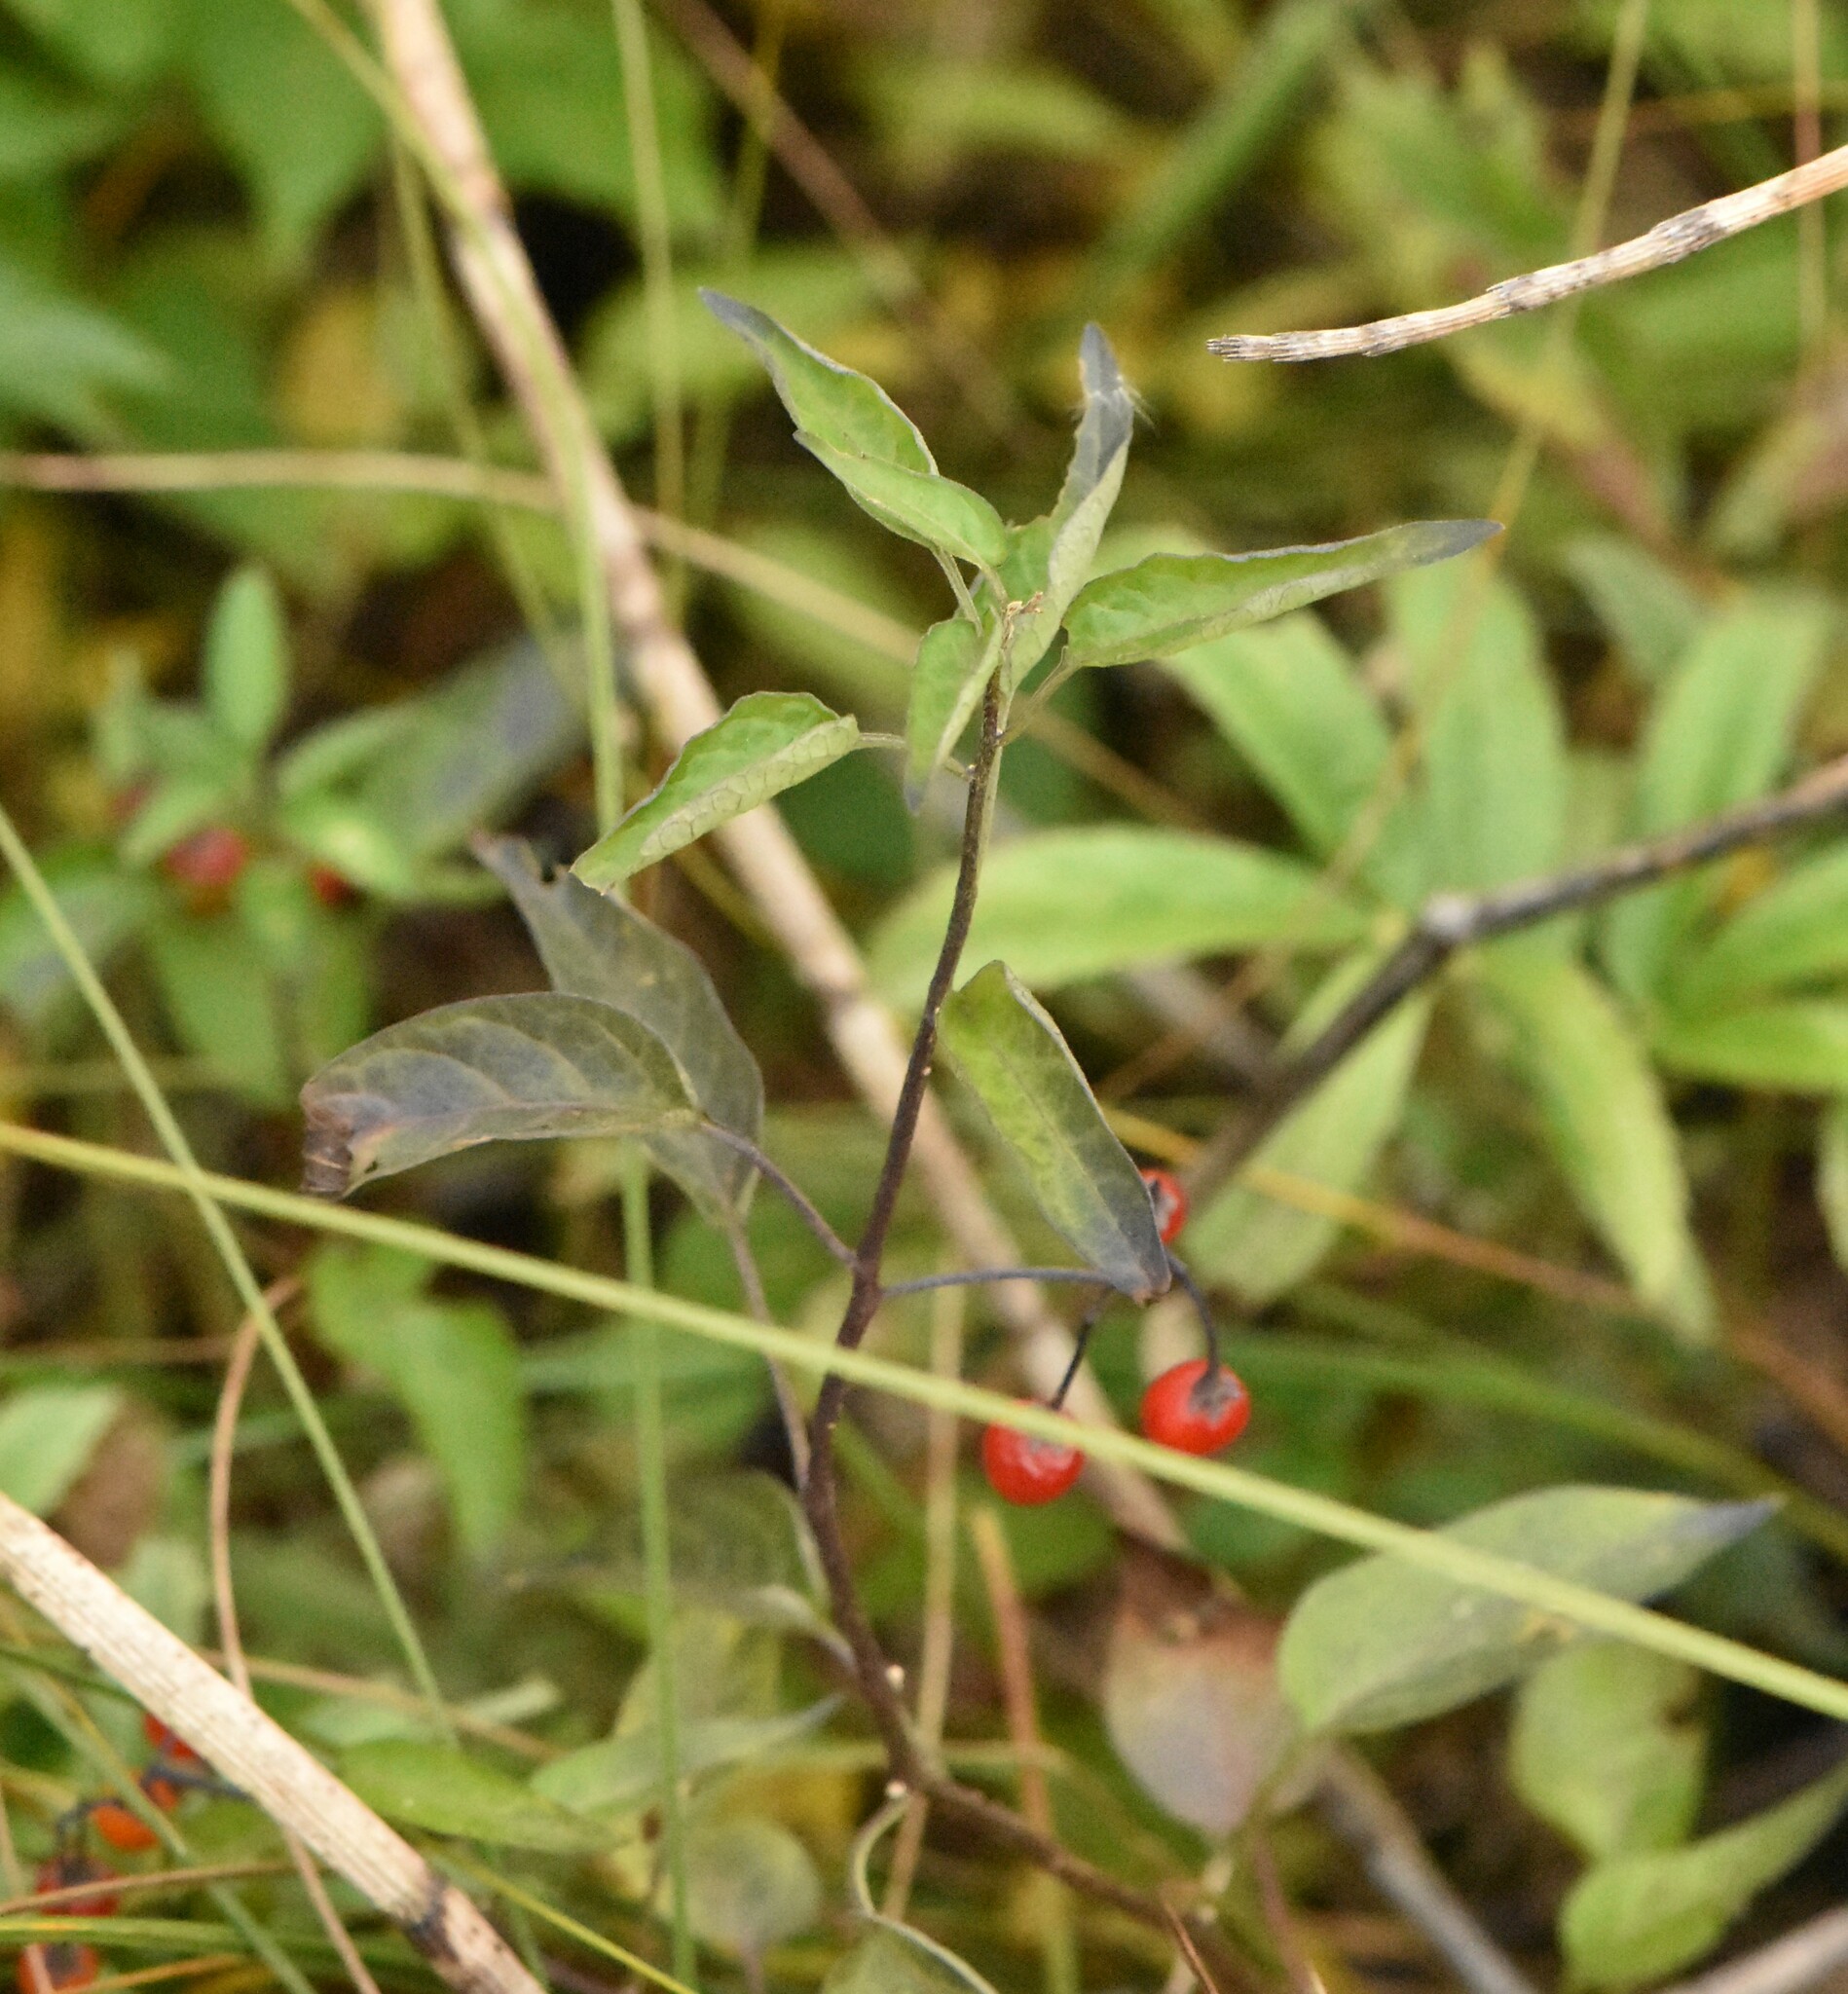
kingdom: Plantae
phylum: Tracheophyta
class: Magnoliopsida
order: Solanales
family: Solanaceae
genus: Solanum
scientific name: Solanum dulcamara
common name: Climbing nightshade
